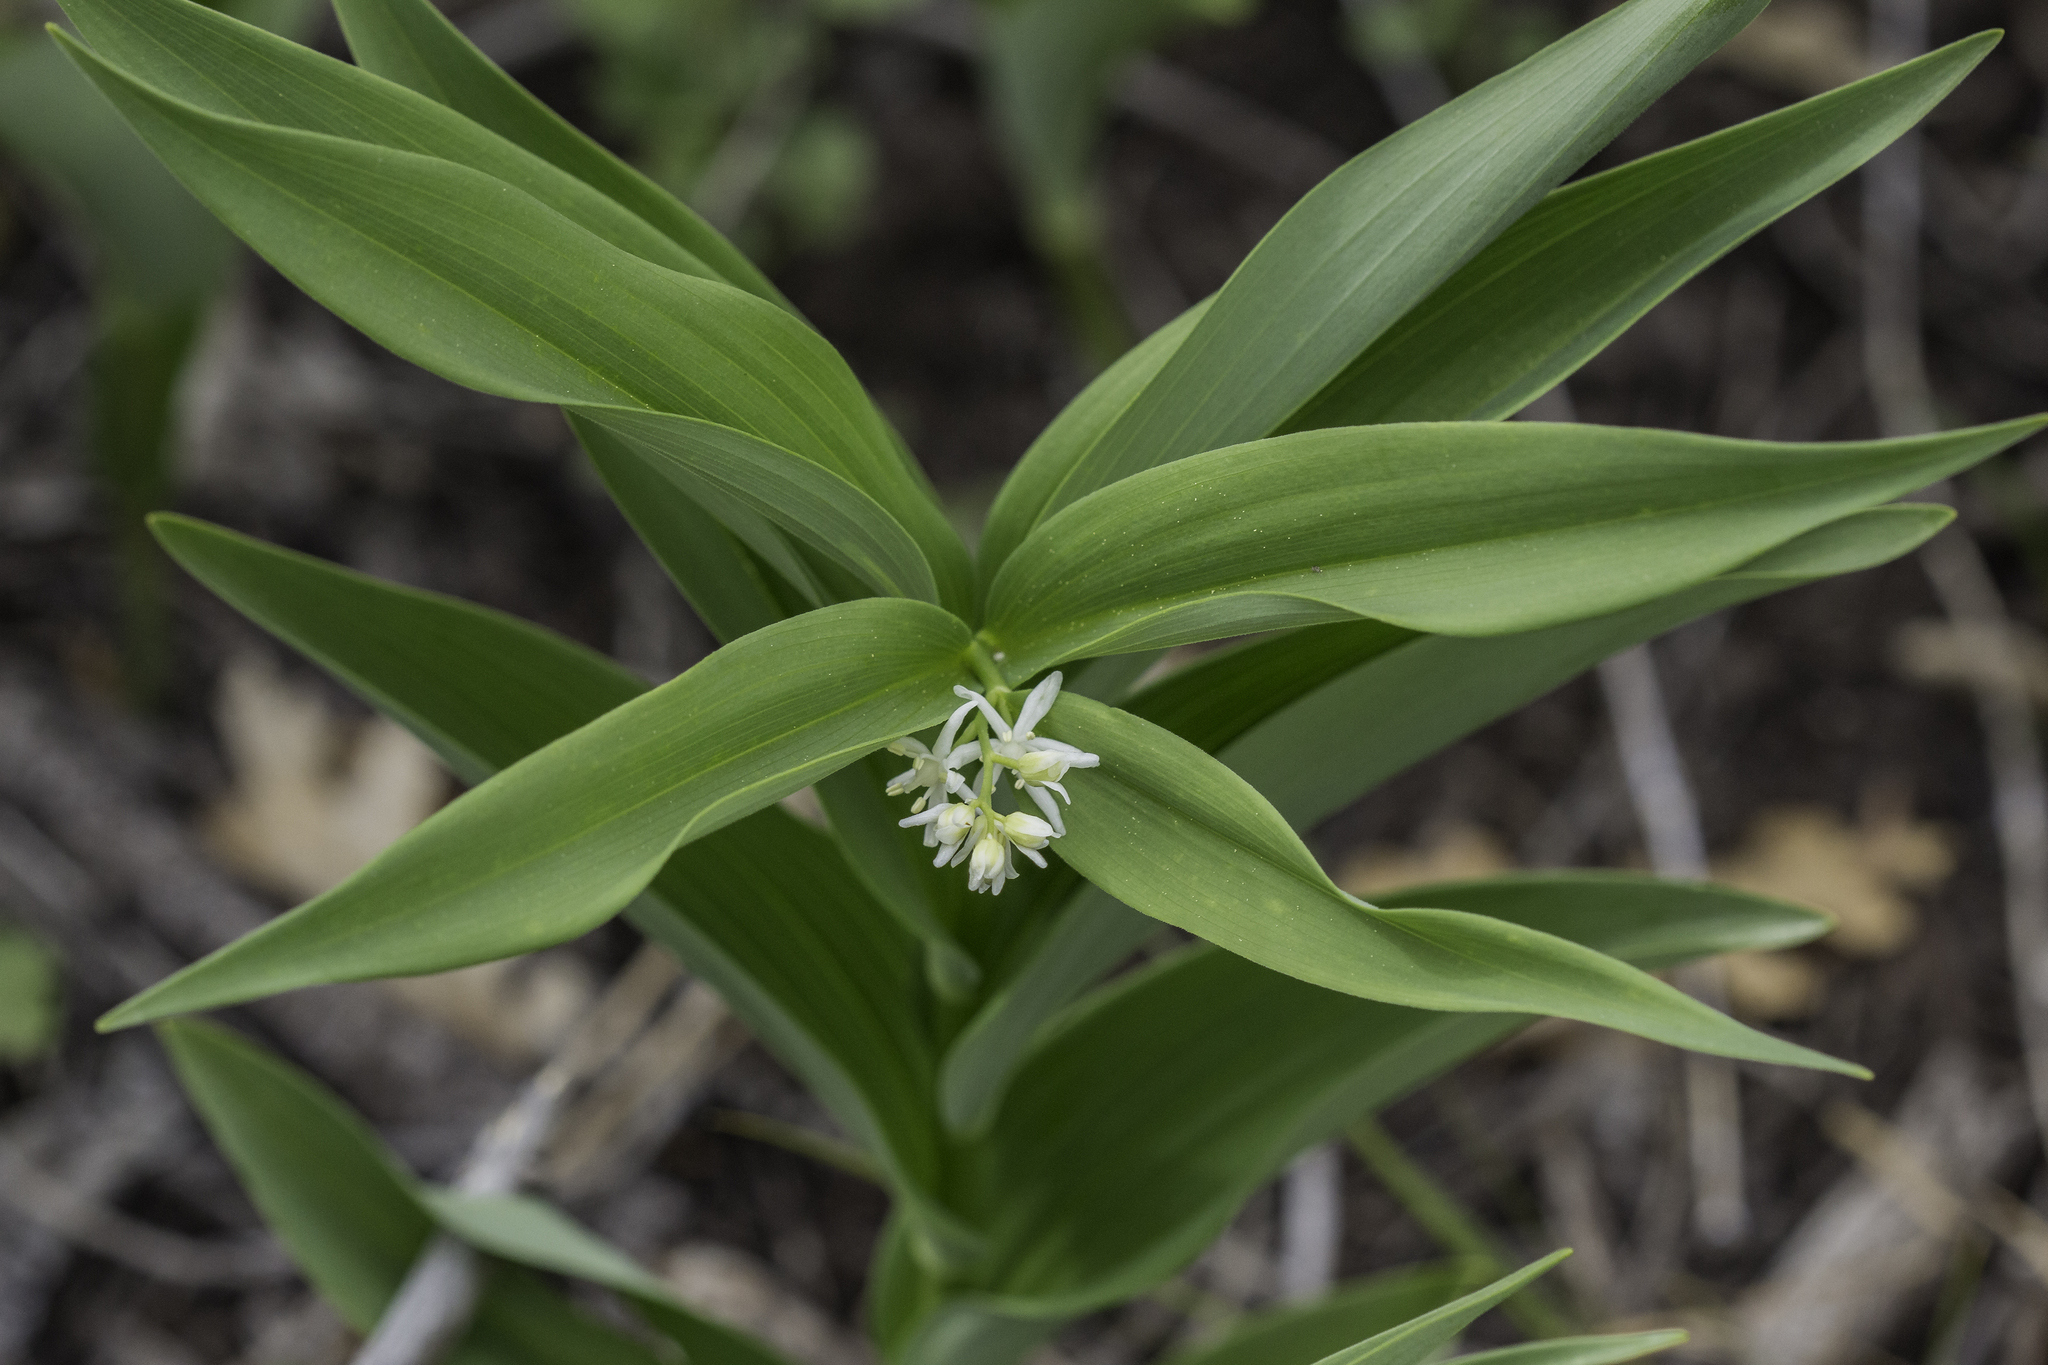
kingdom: Plantae
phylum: Tracheophyta
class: Liliopsida
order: Asparagales
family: Asparagaceae
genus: Maianthemum
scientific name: Maianthemum stellatum
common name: Little false solomon's seal
